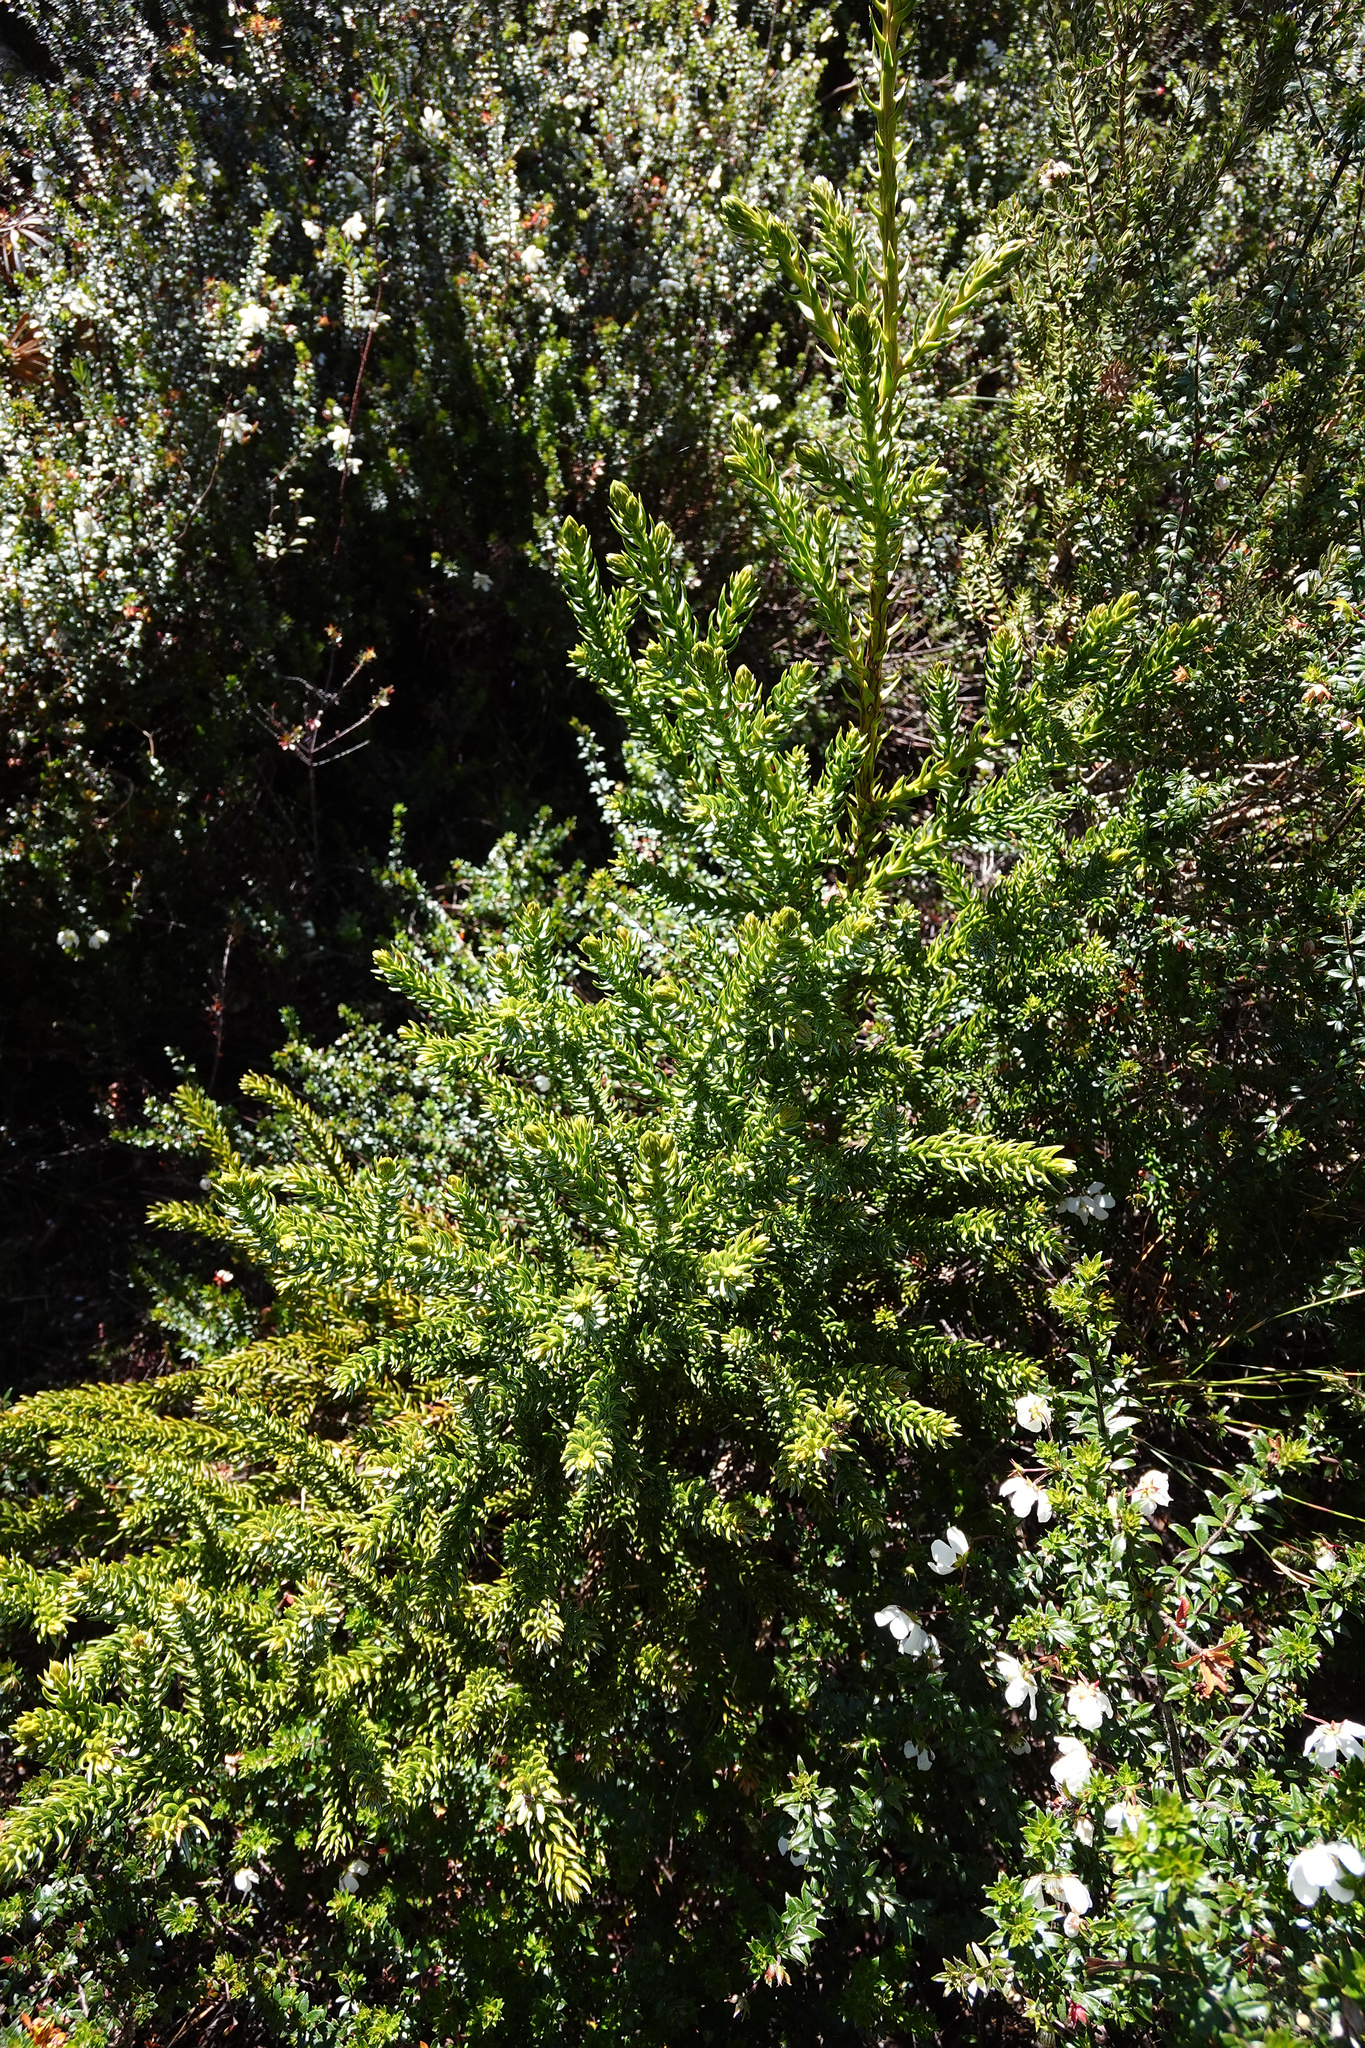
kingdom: Plantae
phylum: Tracheophyta
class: Pinopsida
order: Pinales
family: Cupressaceae
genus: Athrotaxis
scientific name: Athrotaxis selaginoides
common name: King william pine
